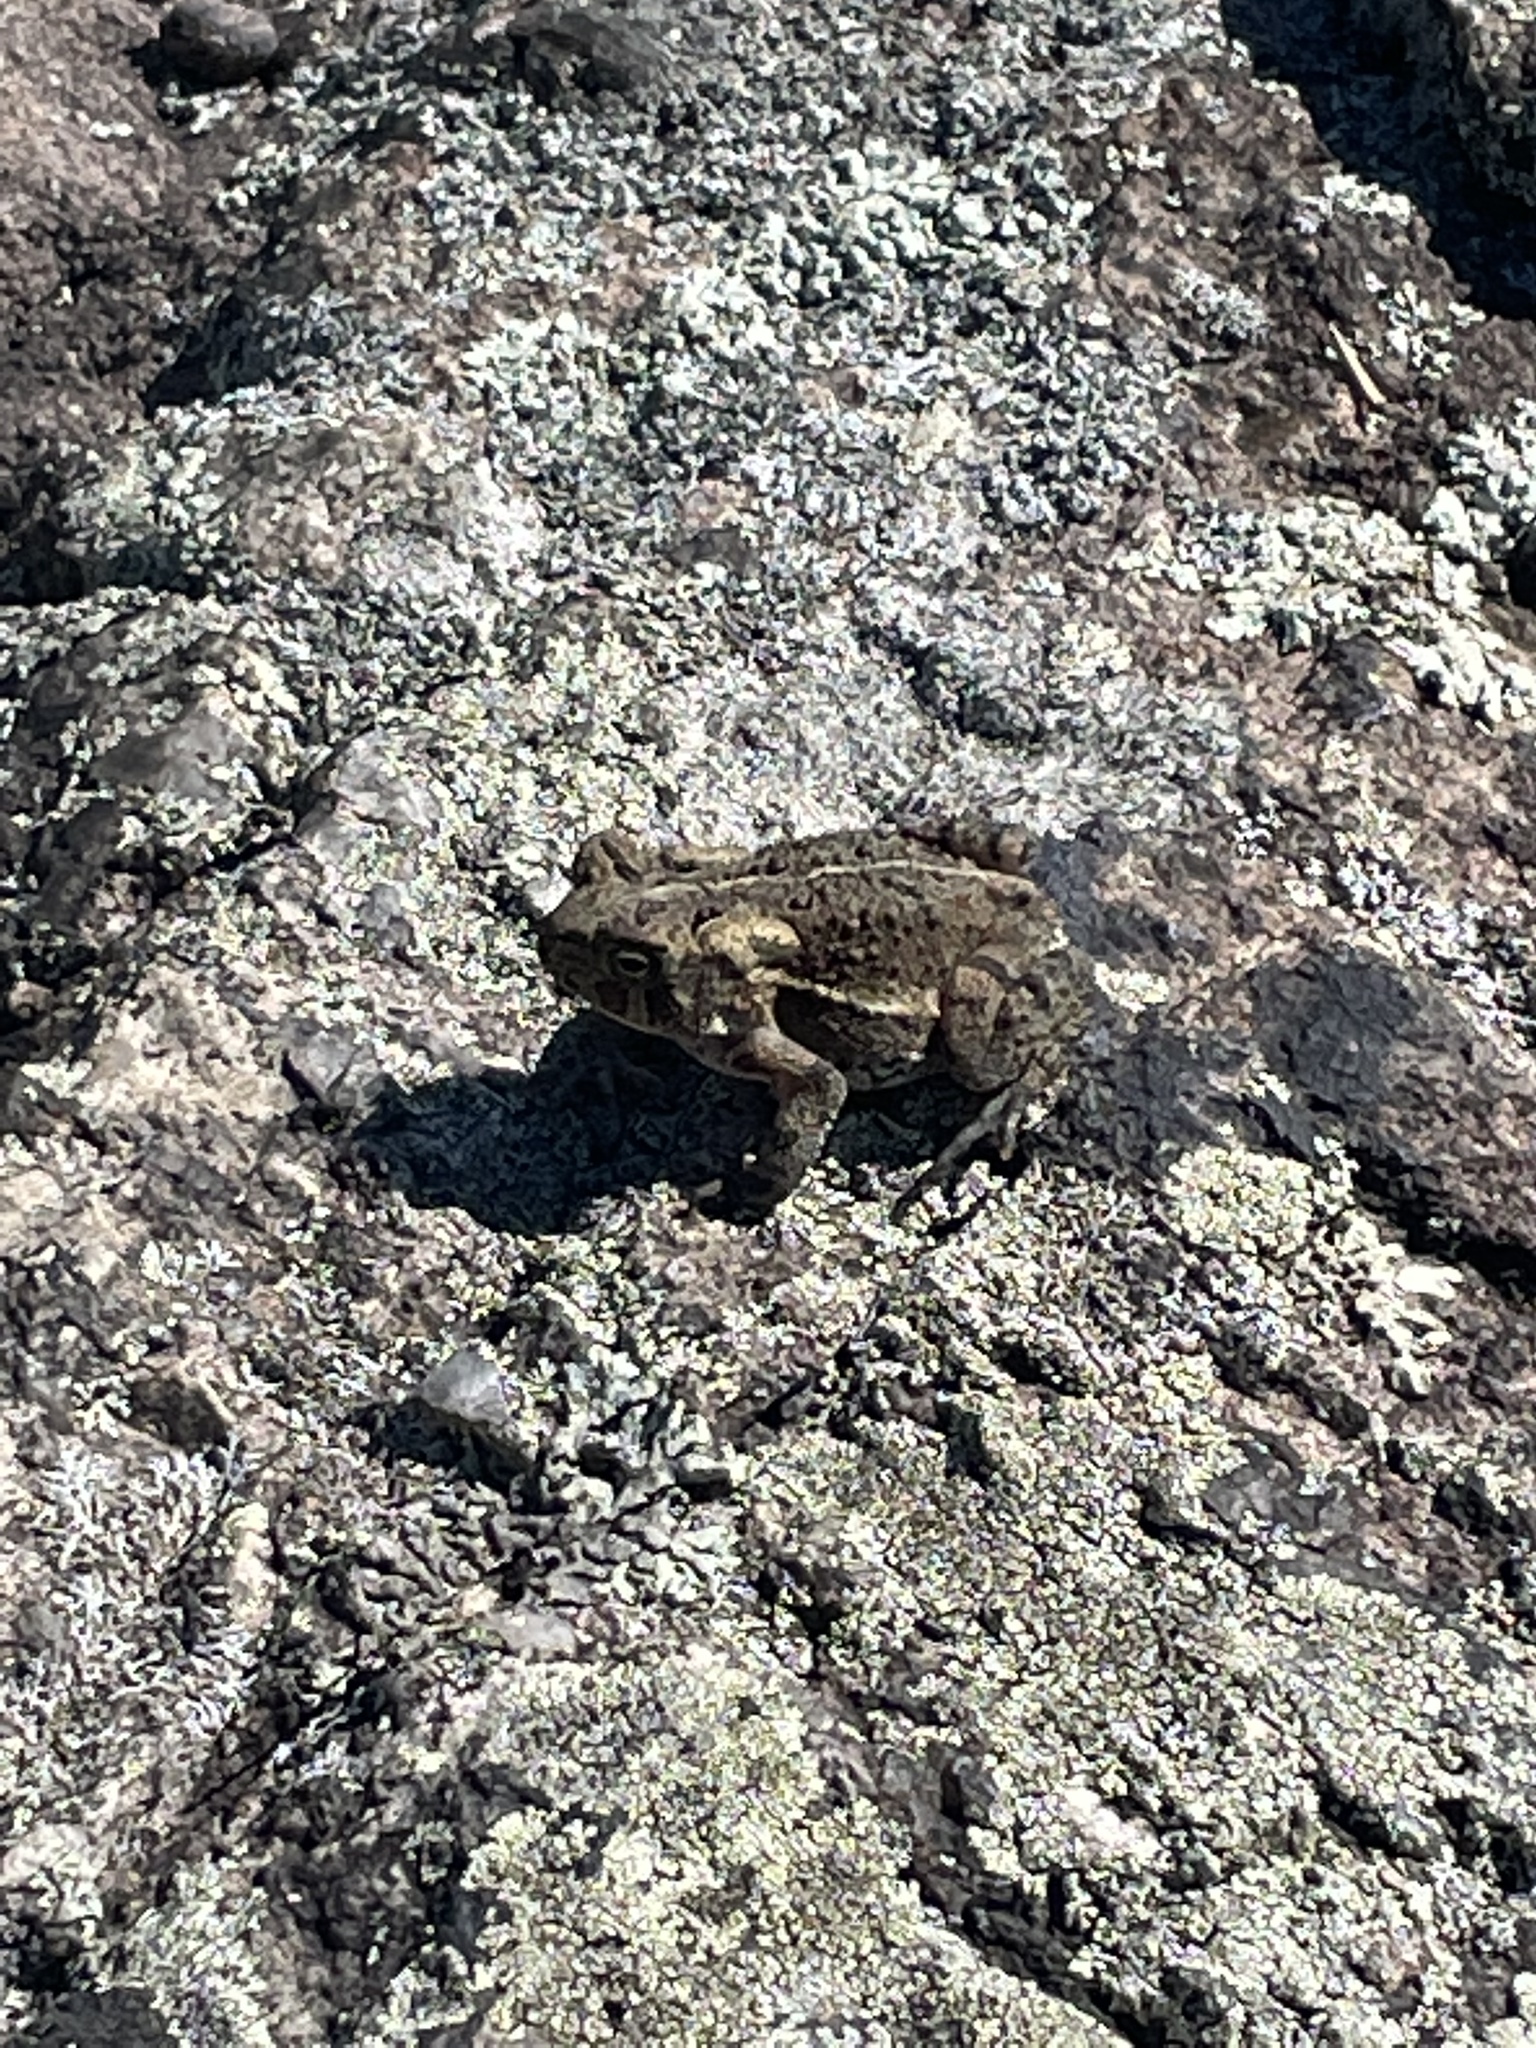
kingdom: Animalia
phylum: Chordata
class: Amphibia
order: Anura
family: Bufonidae
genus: Anaxyrus
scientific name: Anaxyrus americanus
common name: American toad
